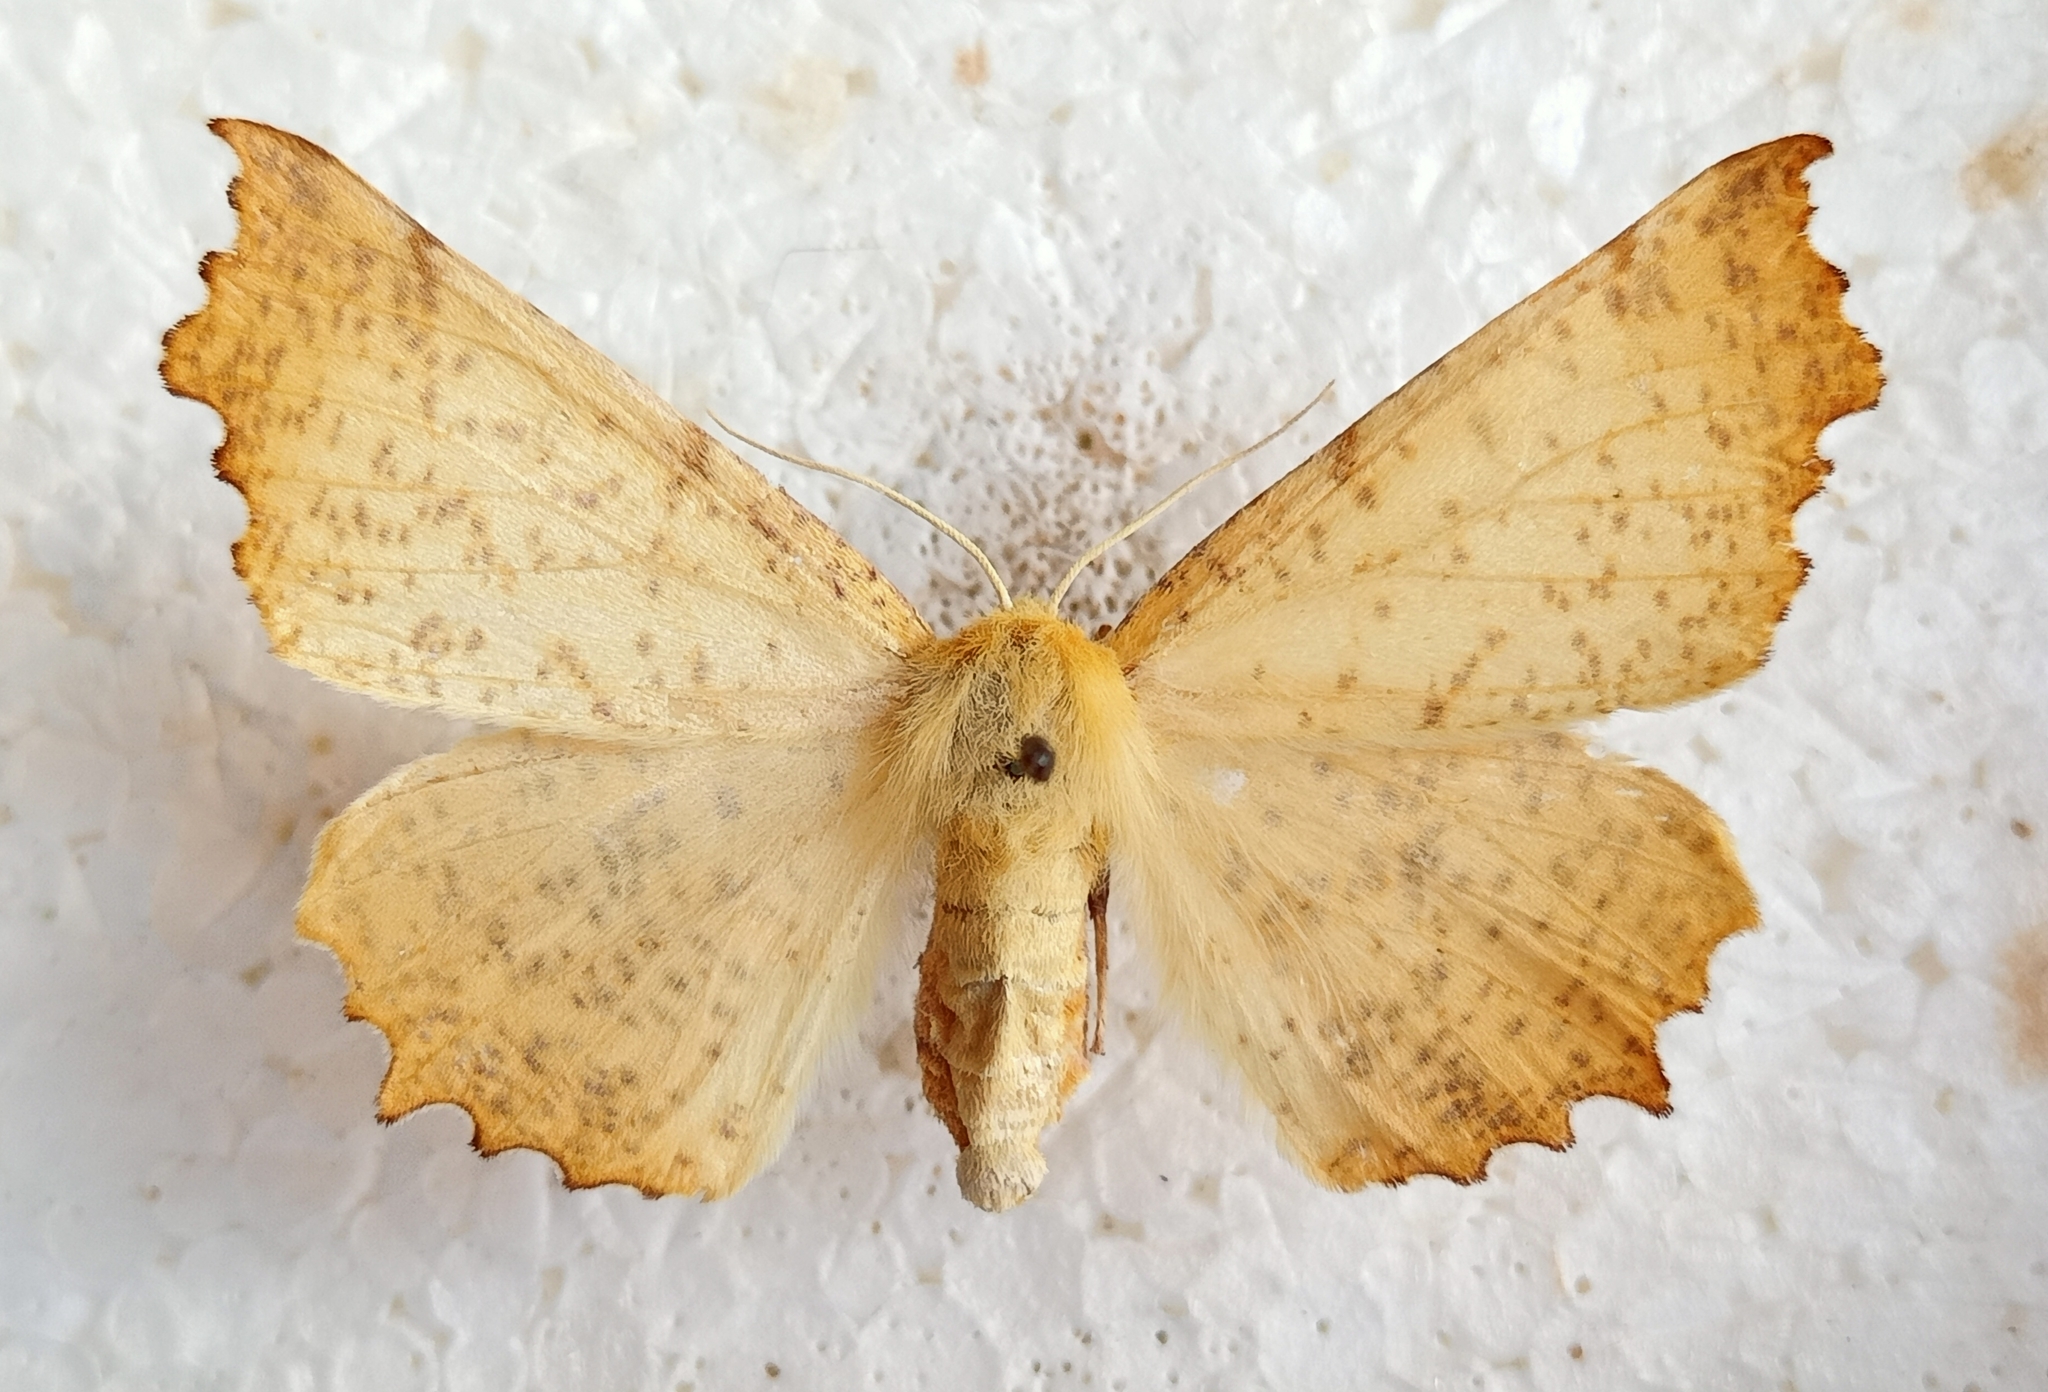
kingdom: Animalia
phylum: Arthropoda
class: Insecta
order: Lepidoptera
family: Geometridae
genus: Ennomos
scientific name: Ennomos autumnaria
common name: Large thorn
